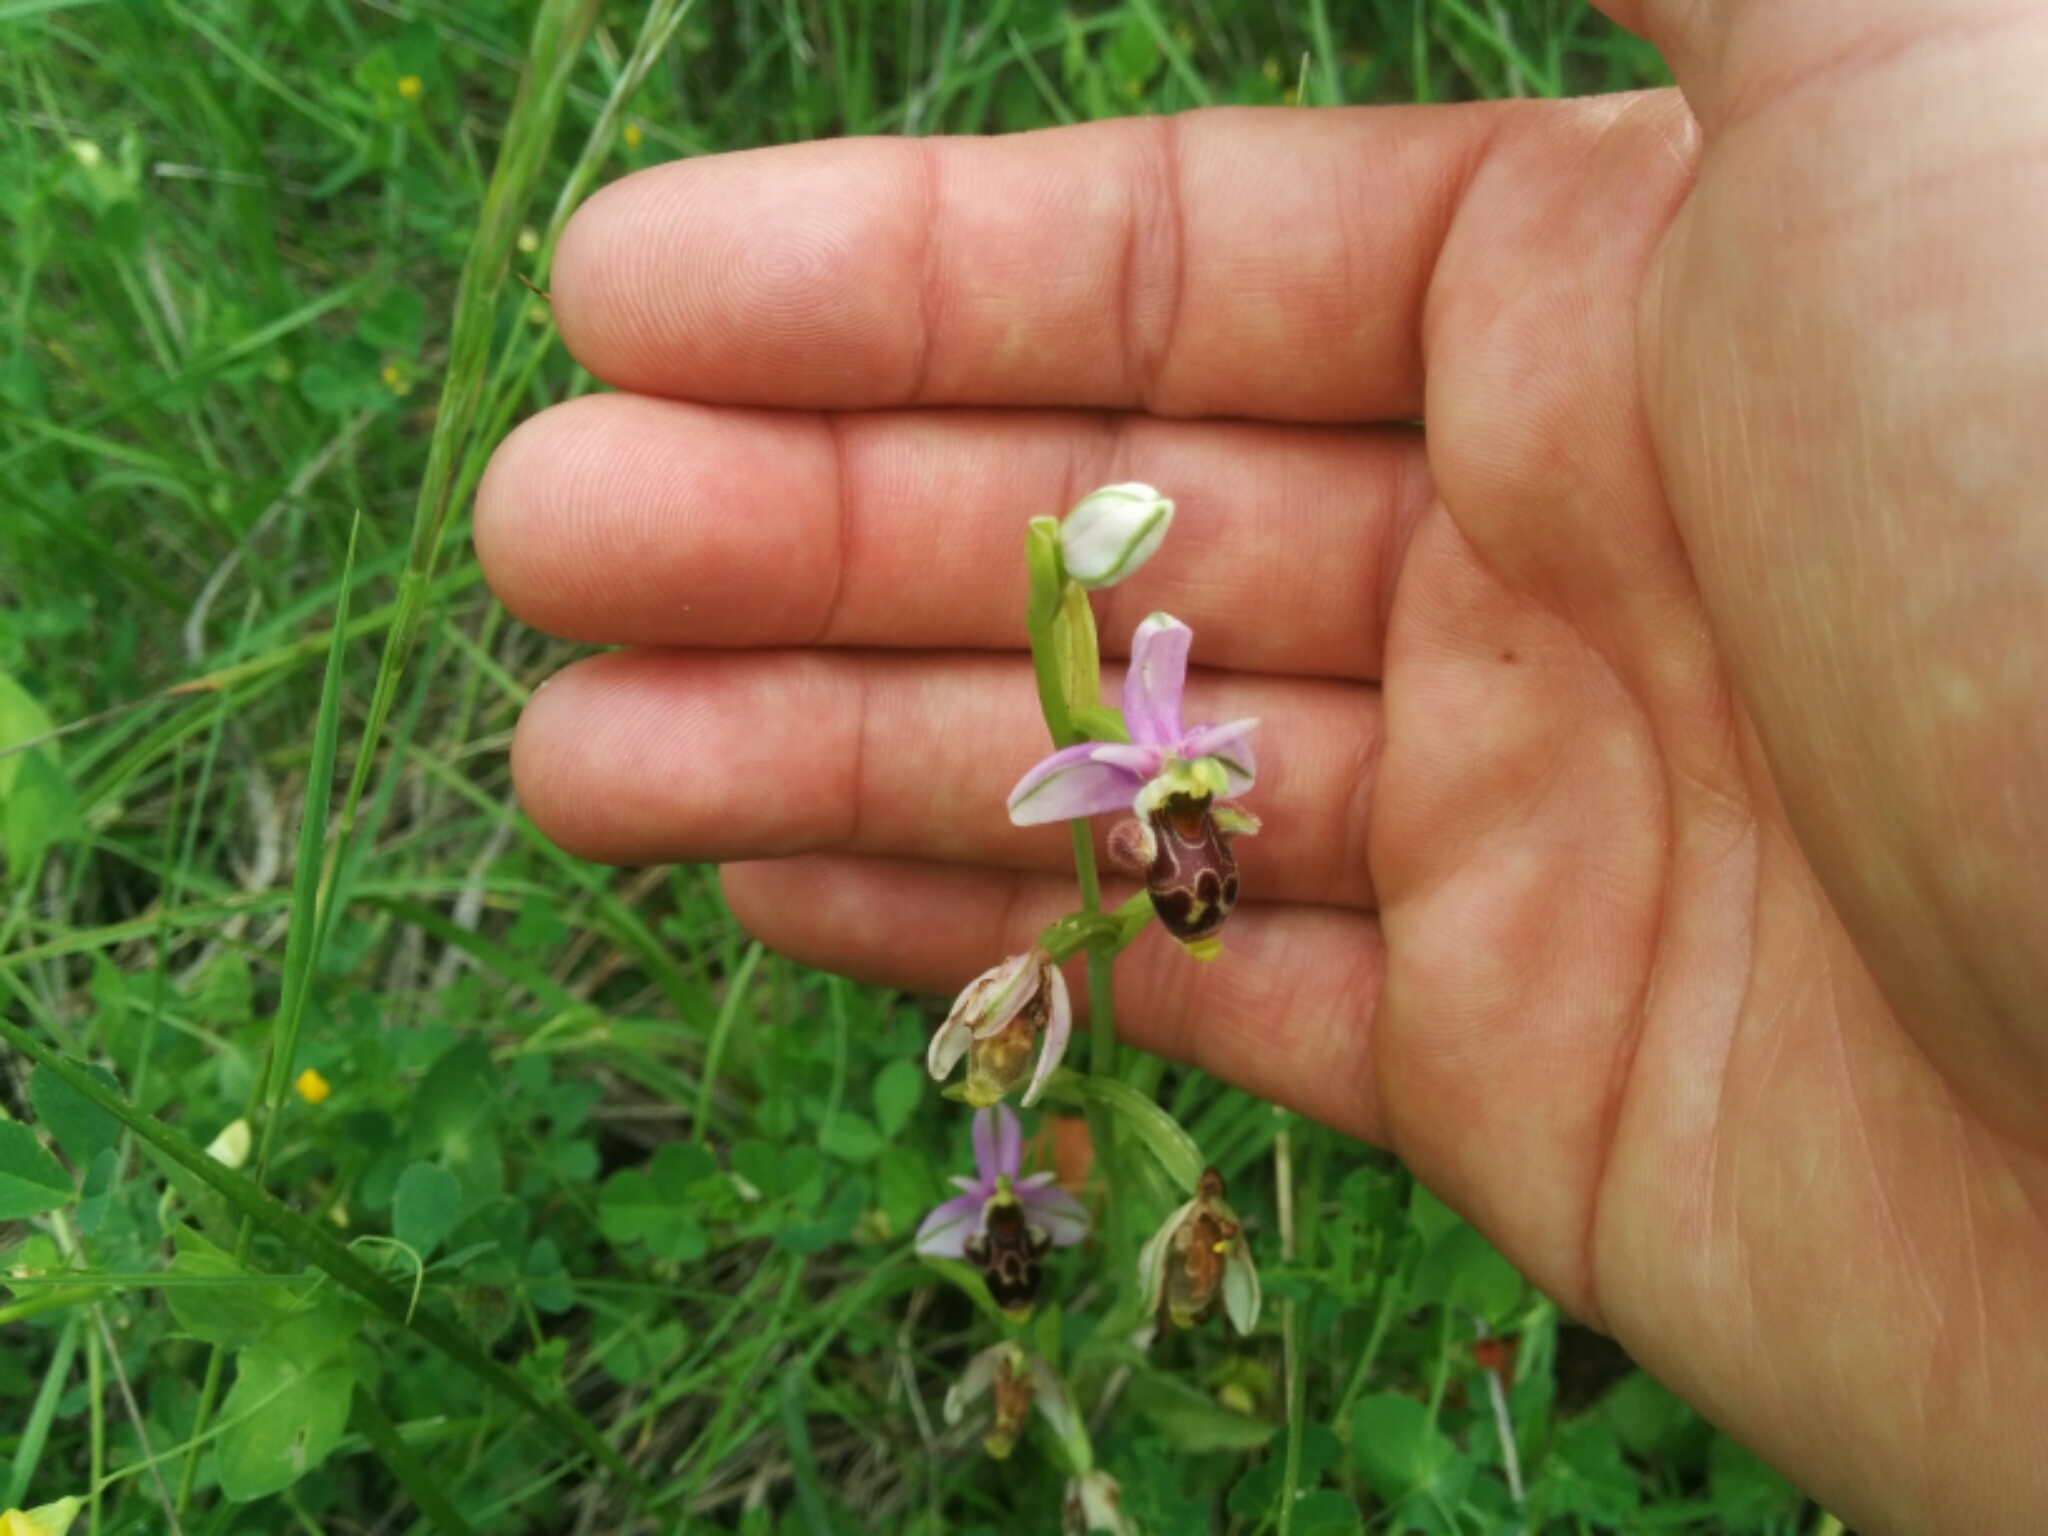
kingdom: Plantae
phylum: Tracheophyta
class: Liliopsida
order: Asparagales
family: Orchidaceae
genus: Ophrys
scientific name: Ophrys scolopax
